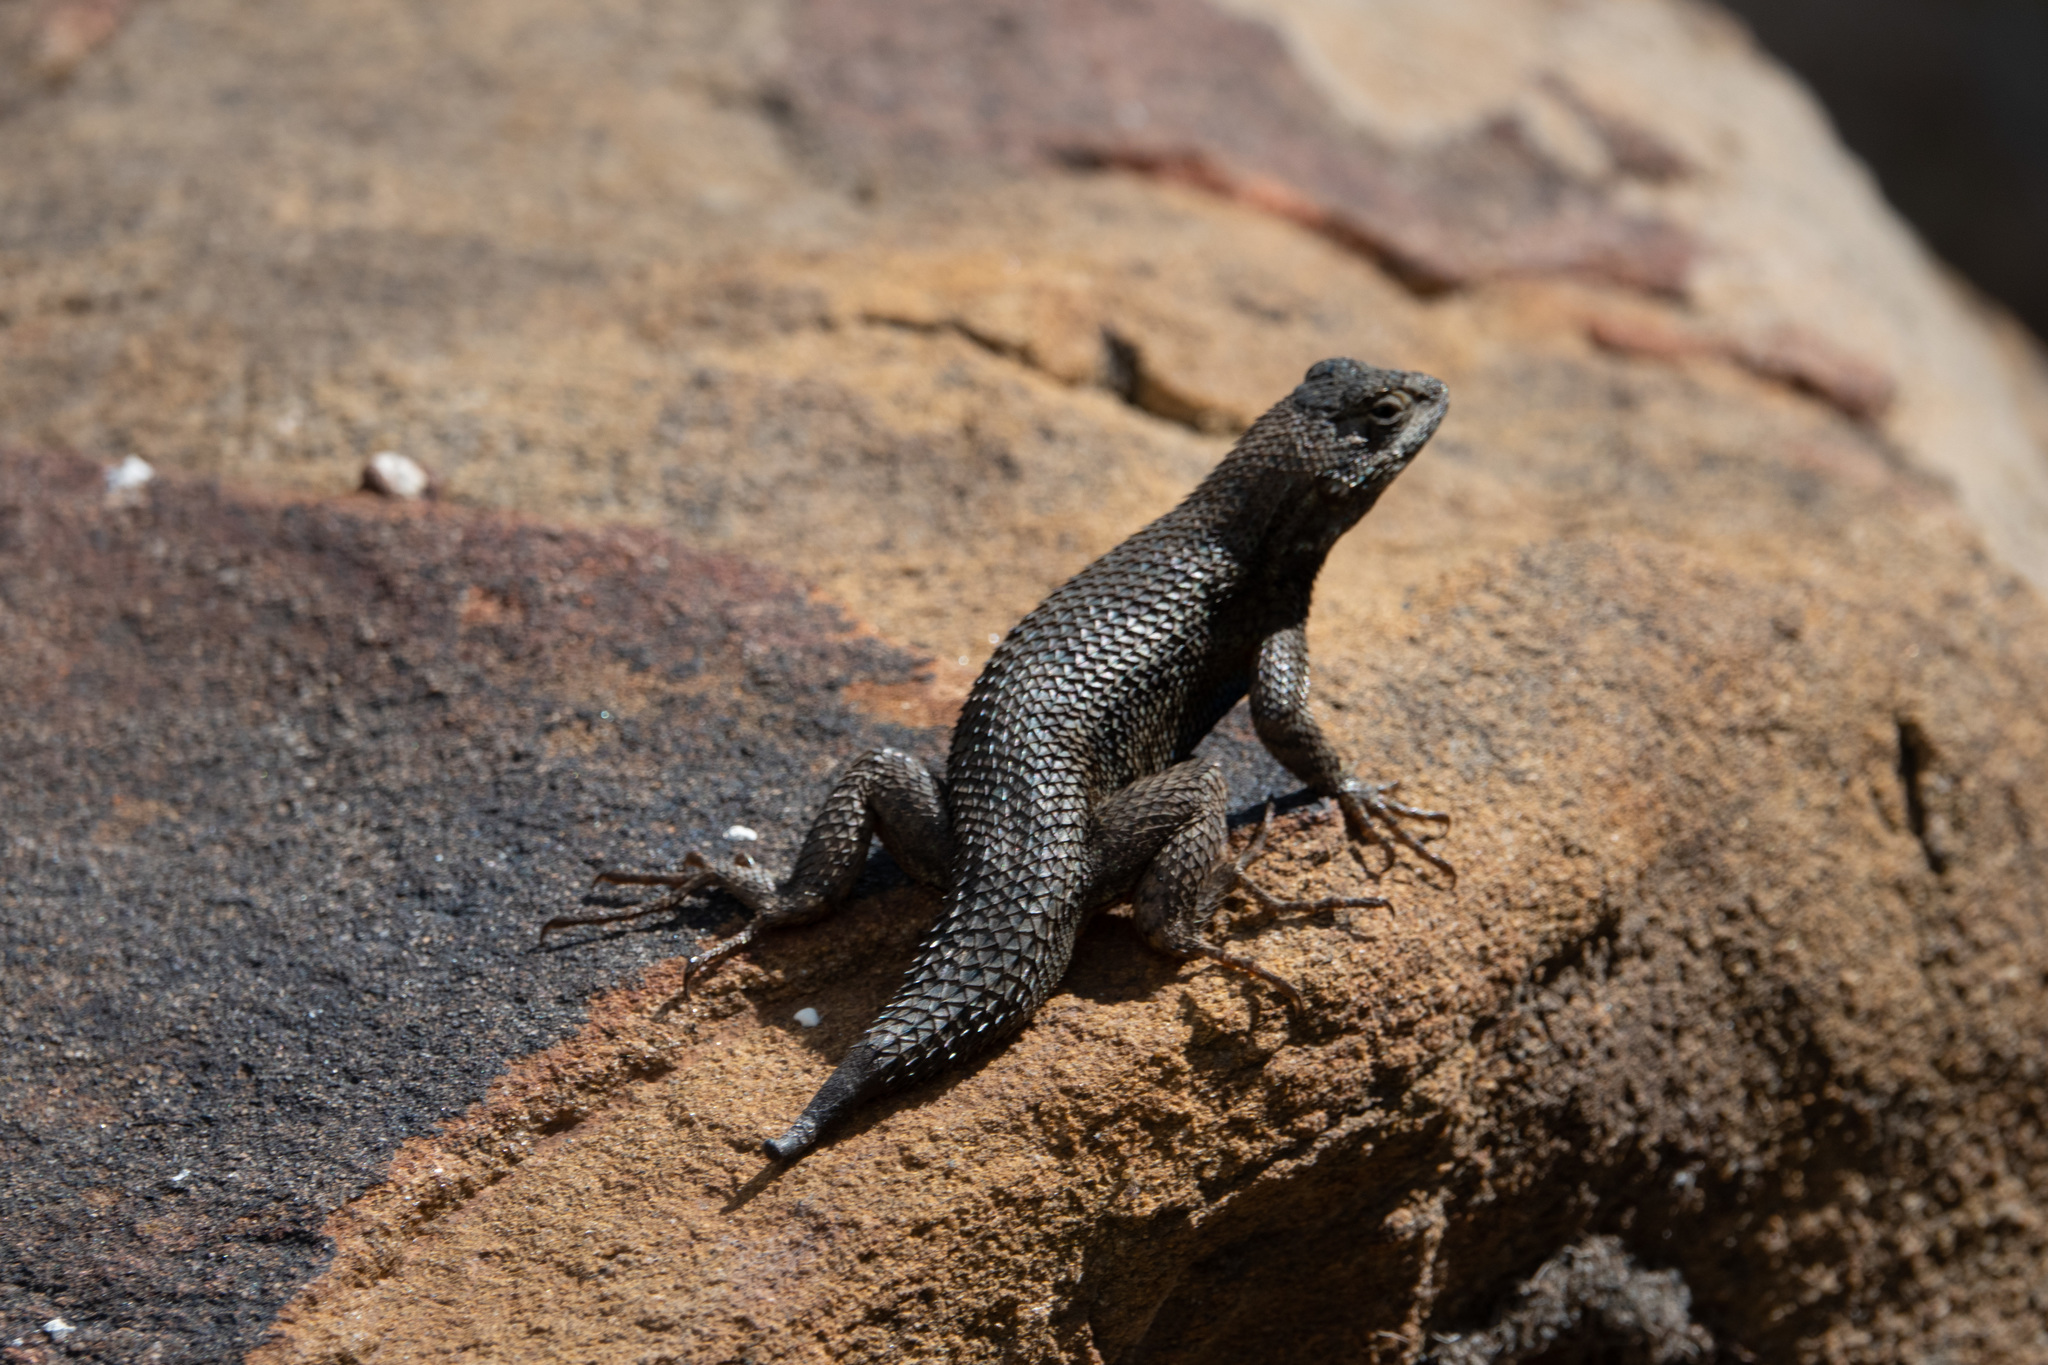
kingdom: Animalia
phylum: Chordata
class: Squamata
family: Phrynosomatidae
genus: Sceloporus
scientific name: Sceloporus occidentalis
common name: Western fence lizard
